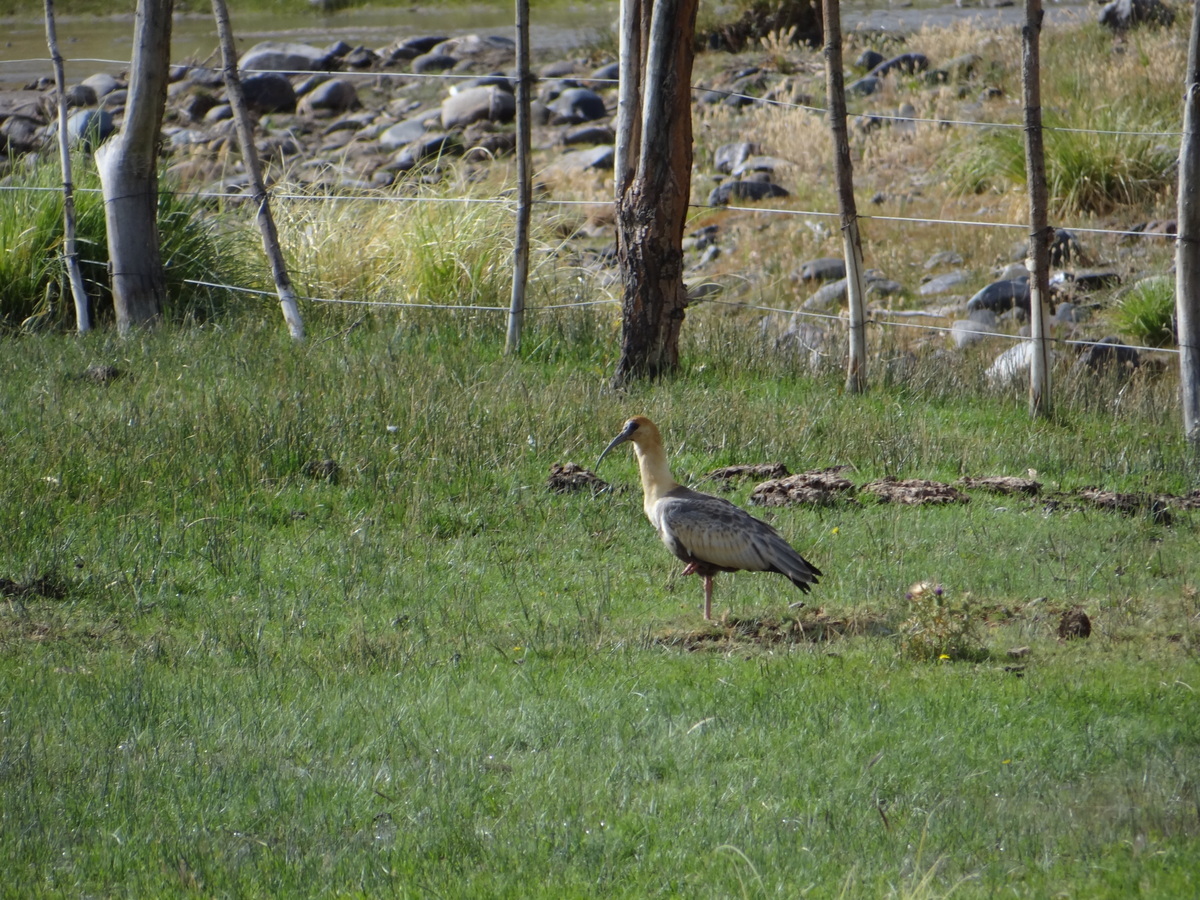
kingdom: Animalia
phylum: Chordata
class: Aves
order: Pelecaniformes
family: Threskiornithidae
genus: Theristicus
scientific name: Theristicus melanopis
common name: Black-faced ibis
